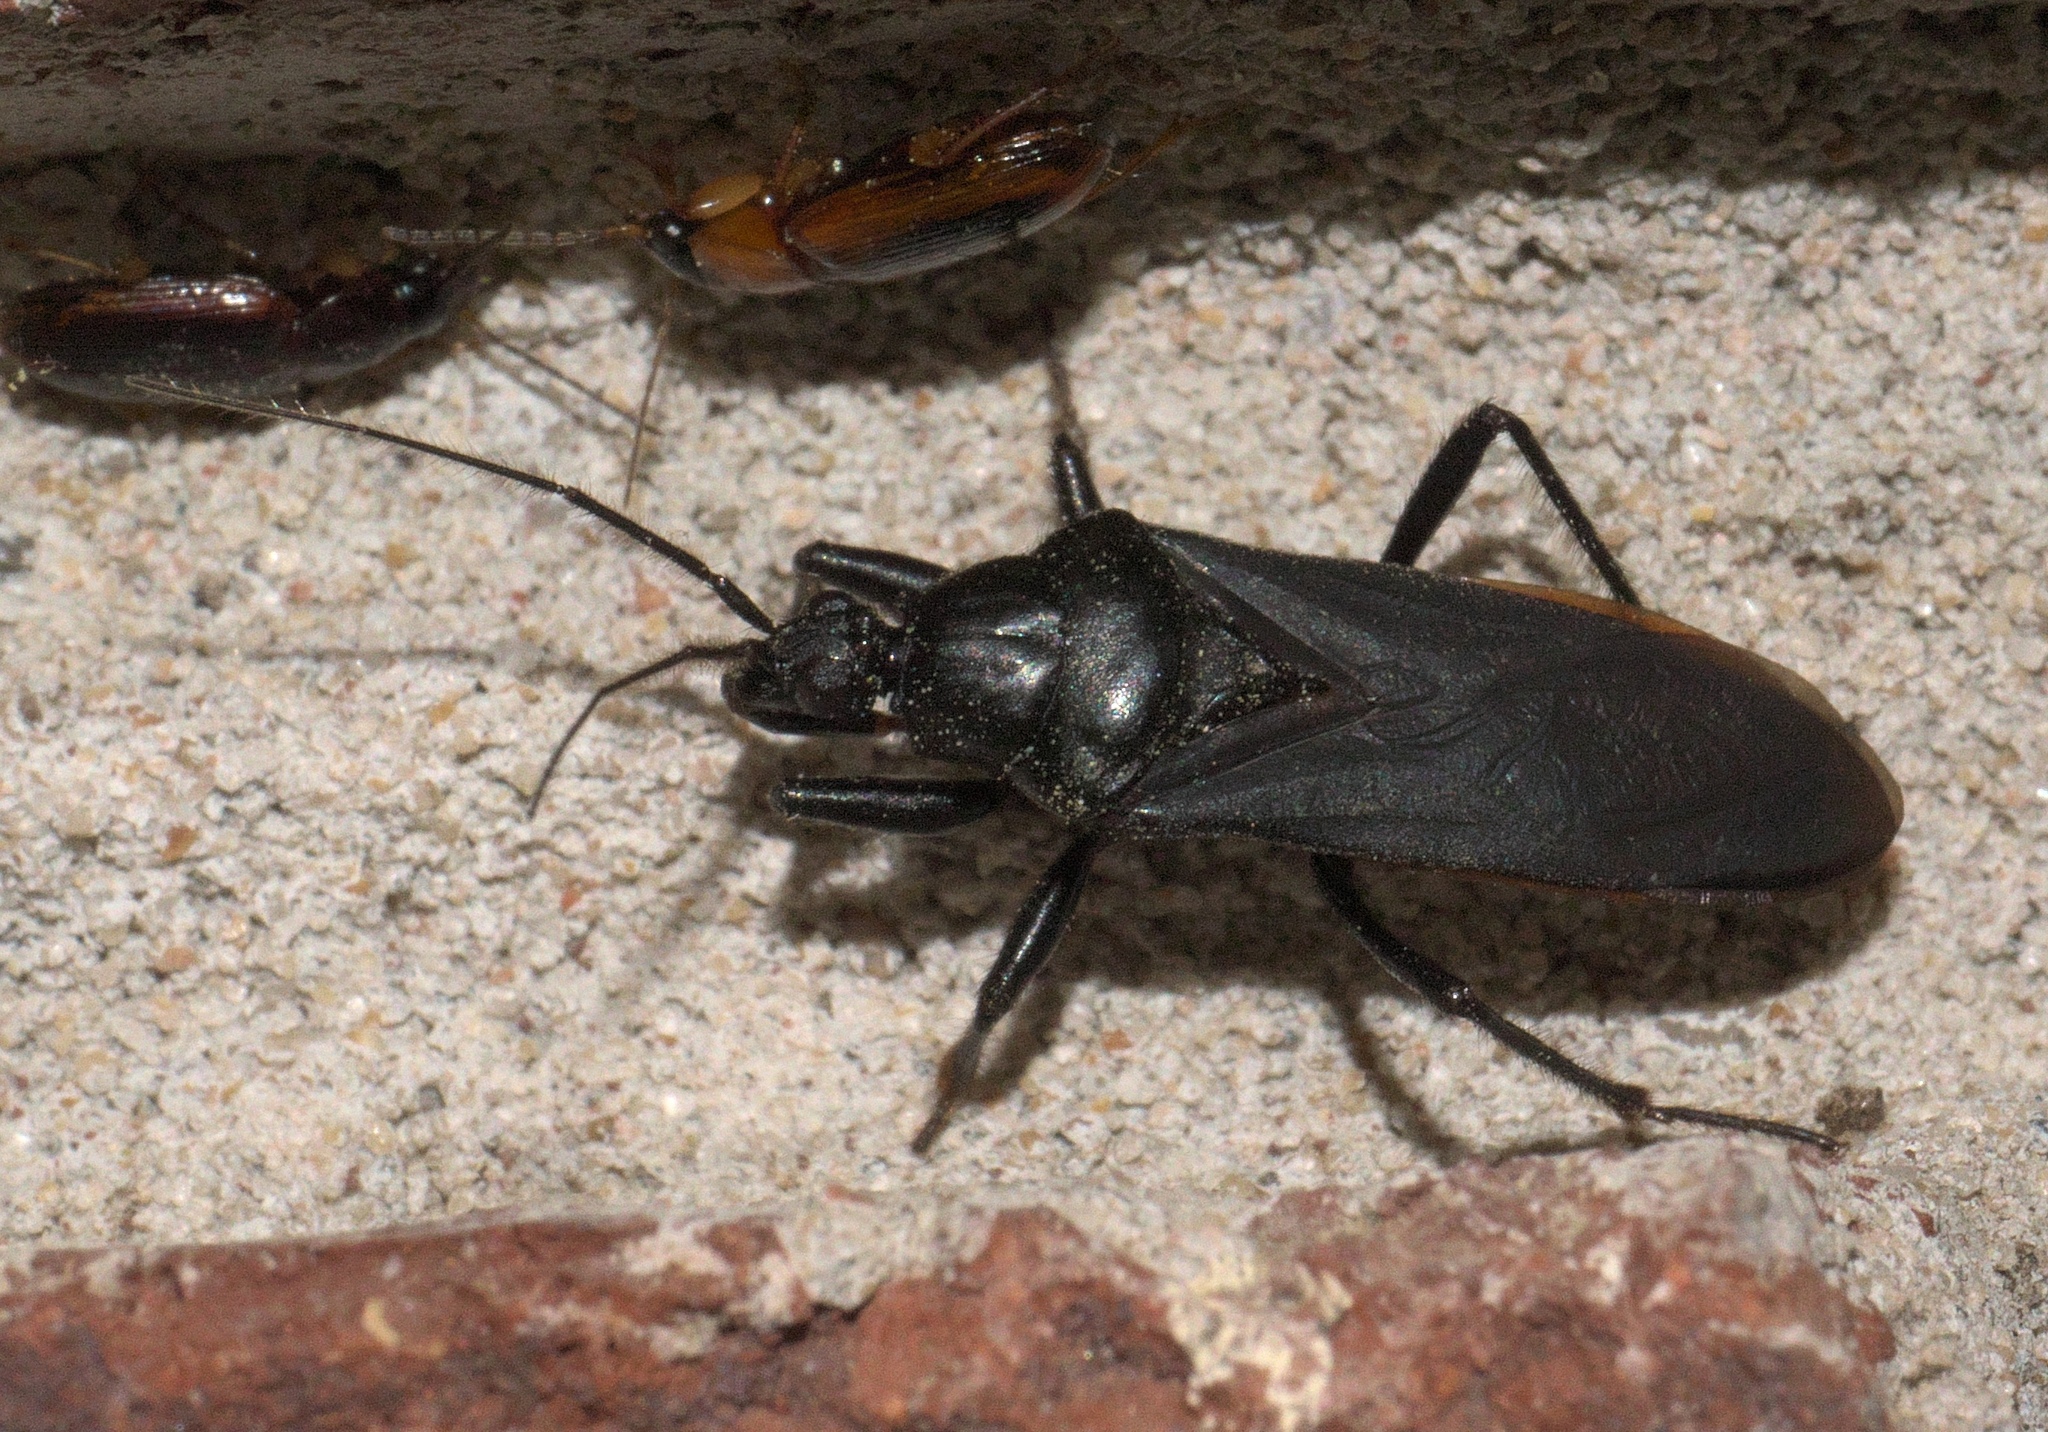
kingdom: Animalia
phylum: Arthropoda
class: Insecta
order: Hemiptera
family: Reduviidae
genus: Melanolestes
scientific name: Melanolestes picipes
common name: Assassin bug
